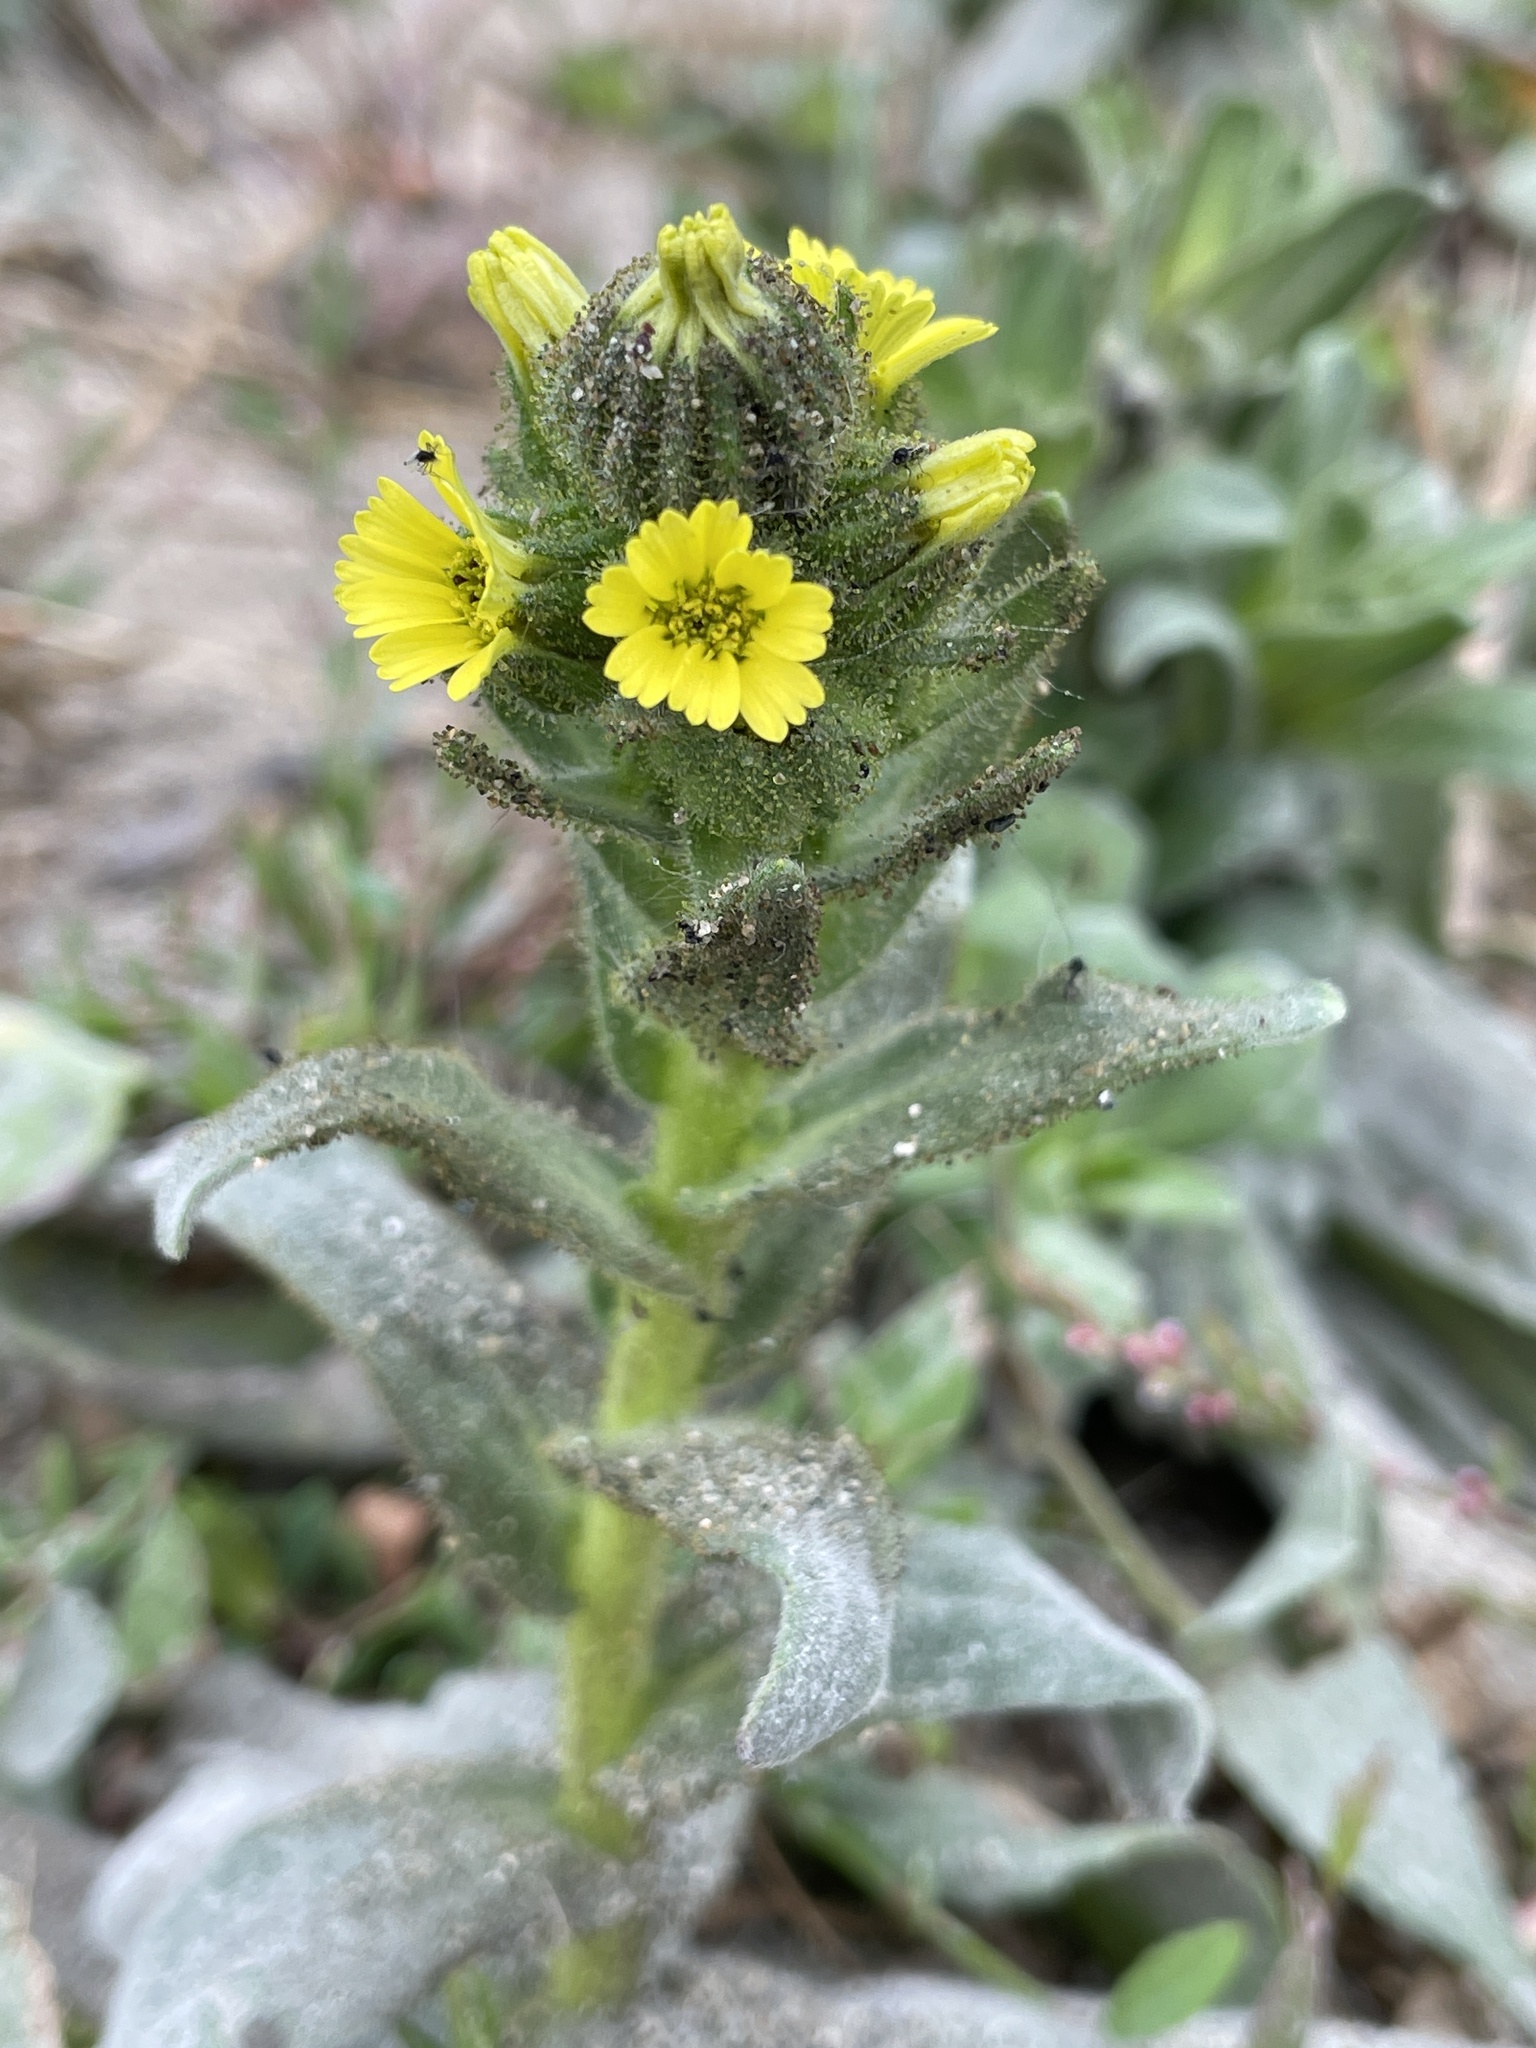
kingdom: Plantae
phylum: Tracheophyta
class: Magnoliopsida
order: Asterales
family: Asteraceae
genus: Madia
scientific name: Madia sativa
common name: Coast tarweed
